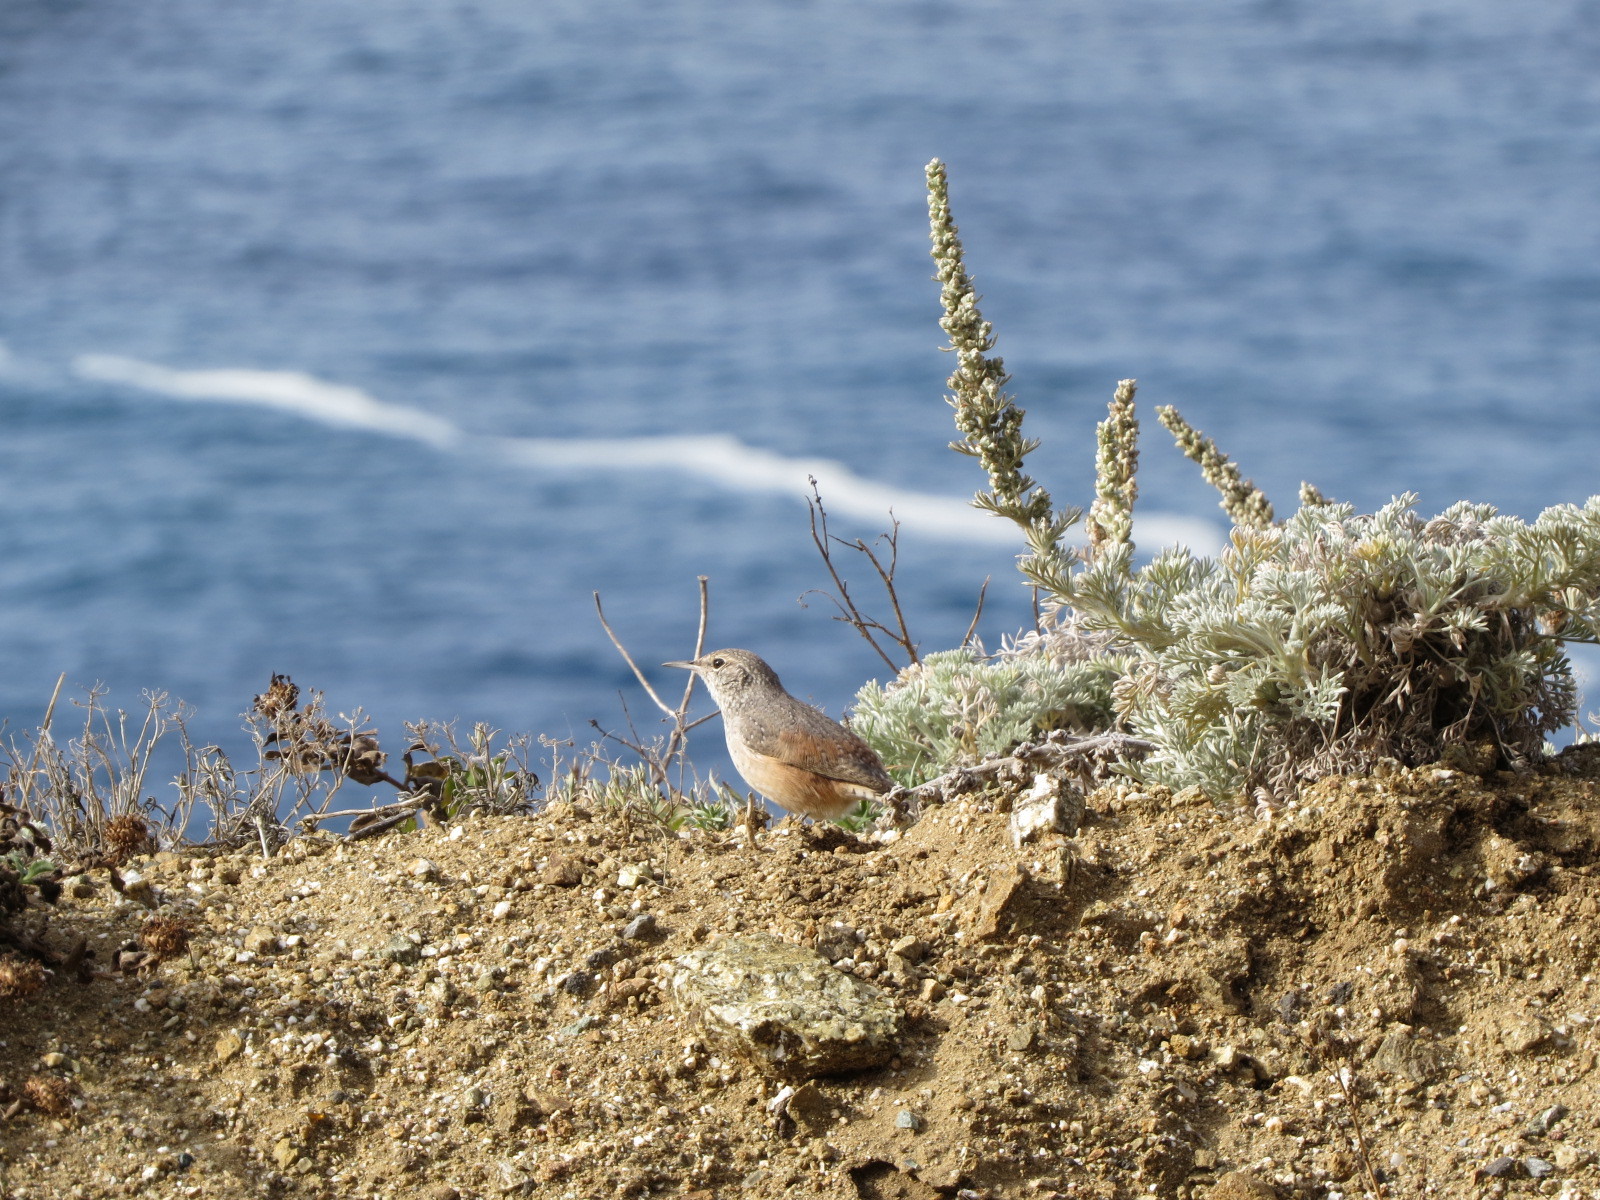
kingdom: Animalia
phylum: Chordata
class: Aves
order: Passeriformes
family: Troglodytidae
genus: Salpinctes
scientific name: Salpinctes obsoletus
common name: Rock wren
